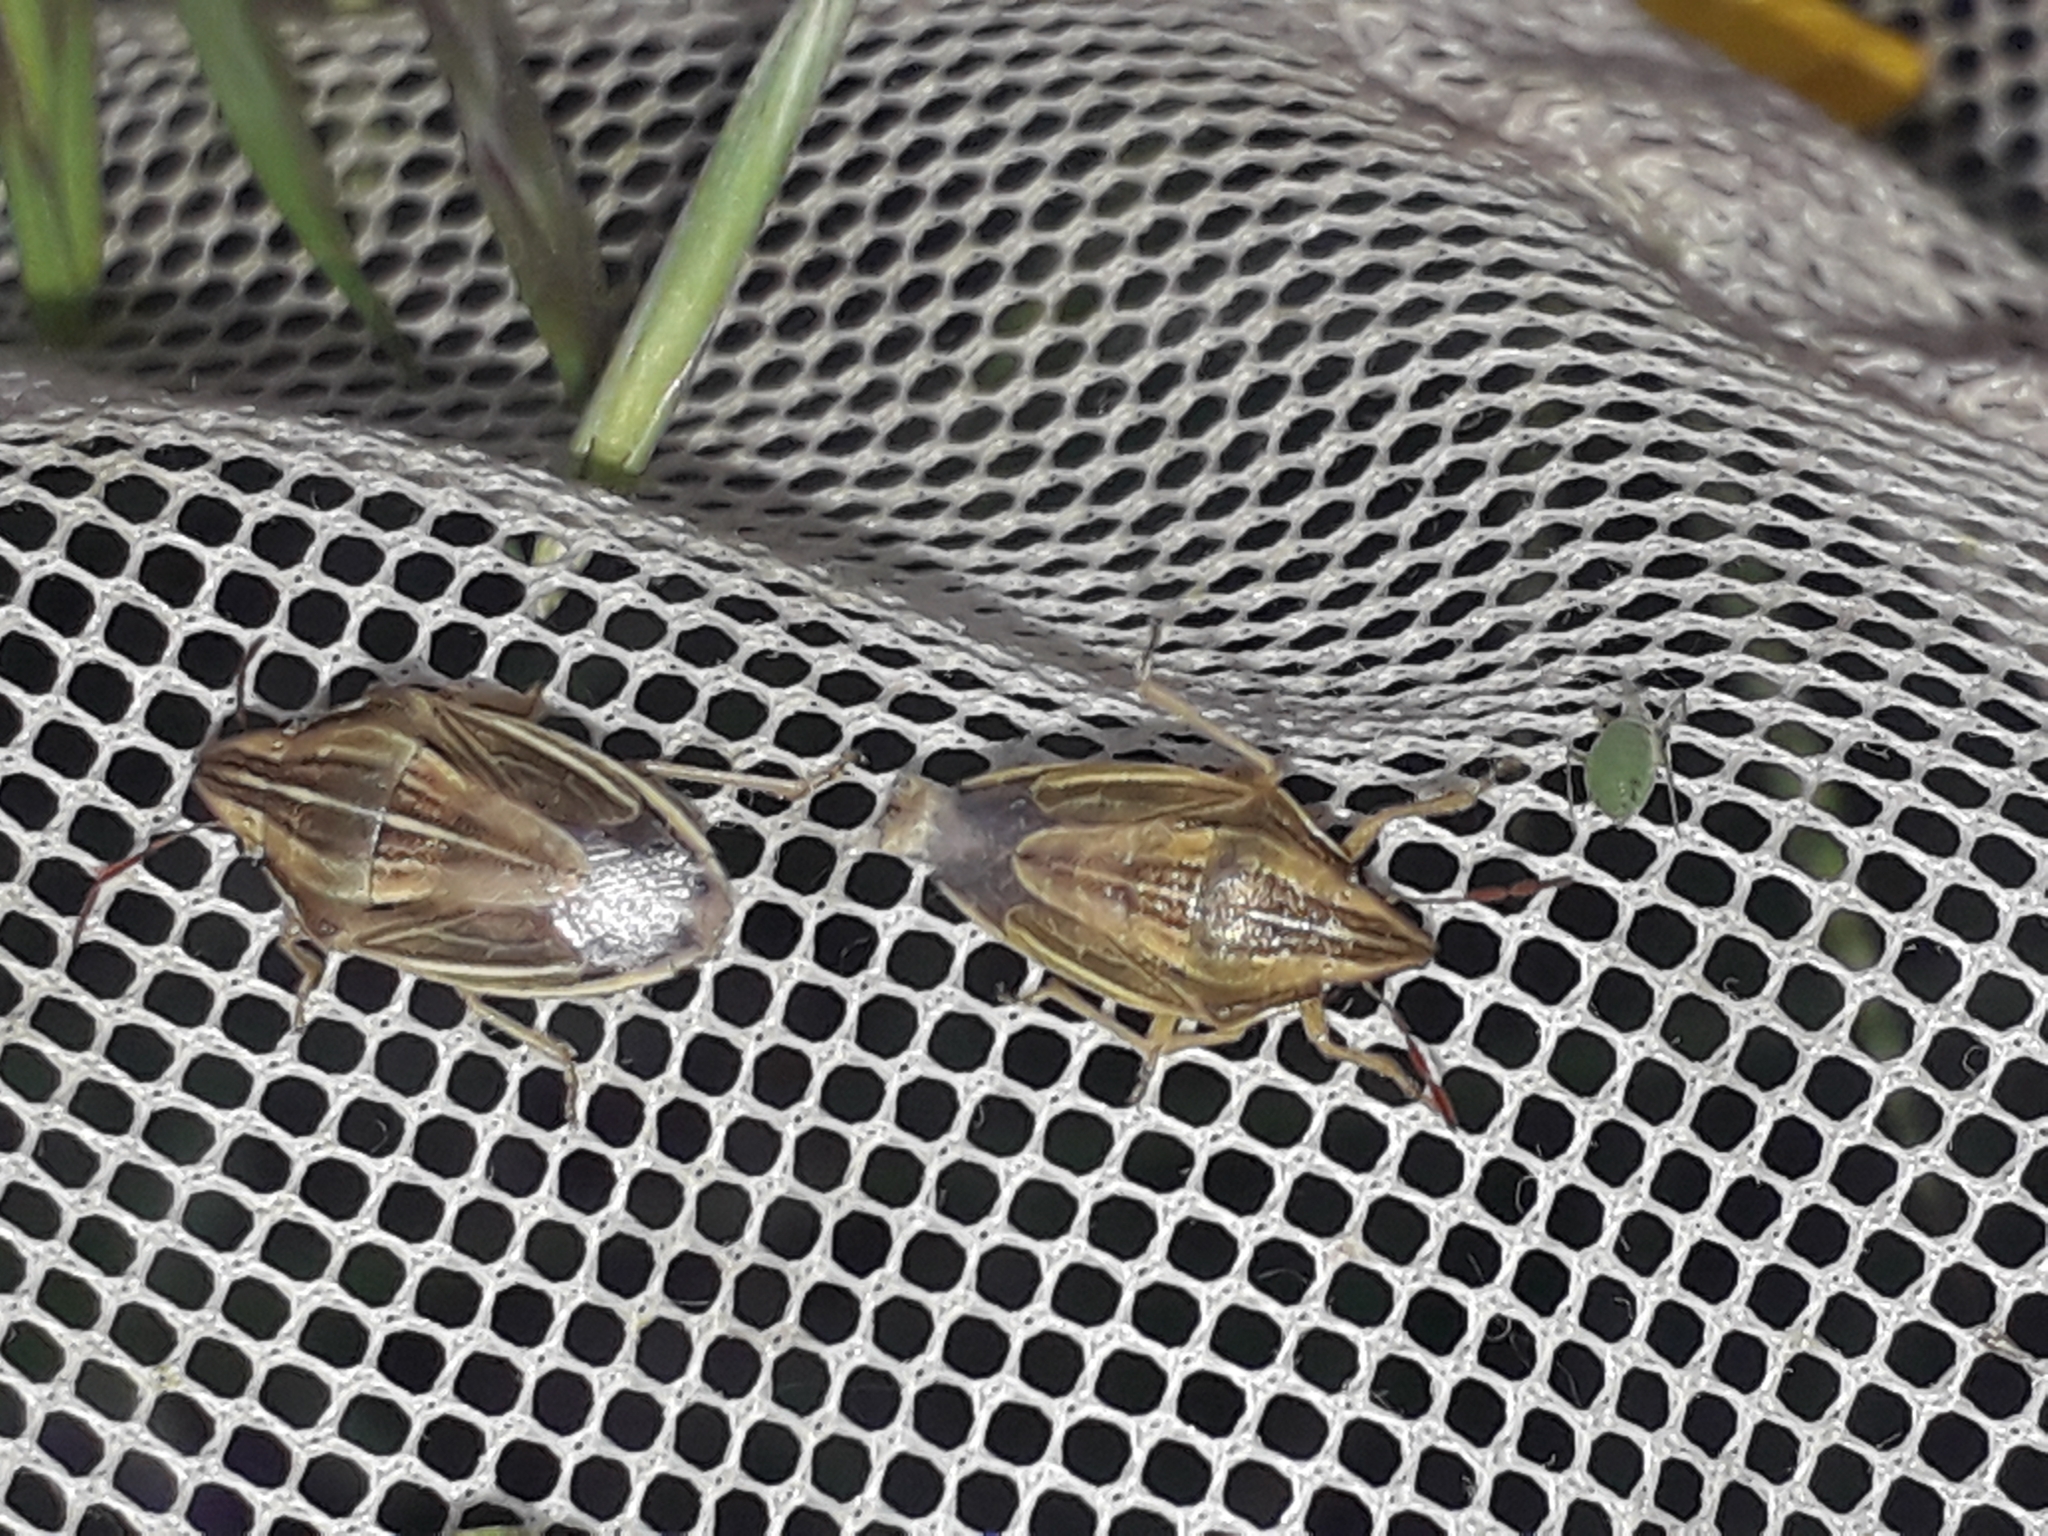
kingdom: Animalia
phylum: Arthropoda
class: Insecta
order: Hemiptera
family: Pentatomidae
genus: Aelia
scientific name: Aelia acuminata
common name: Bishop's mitre
